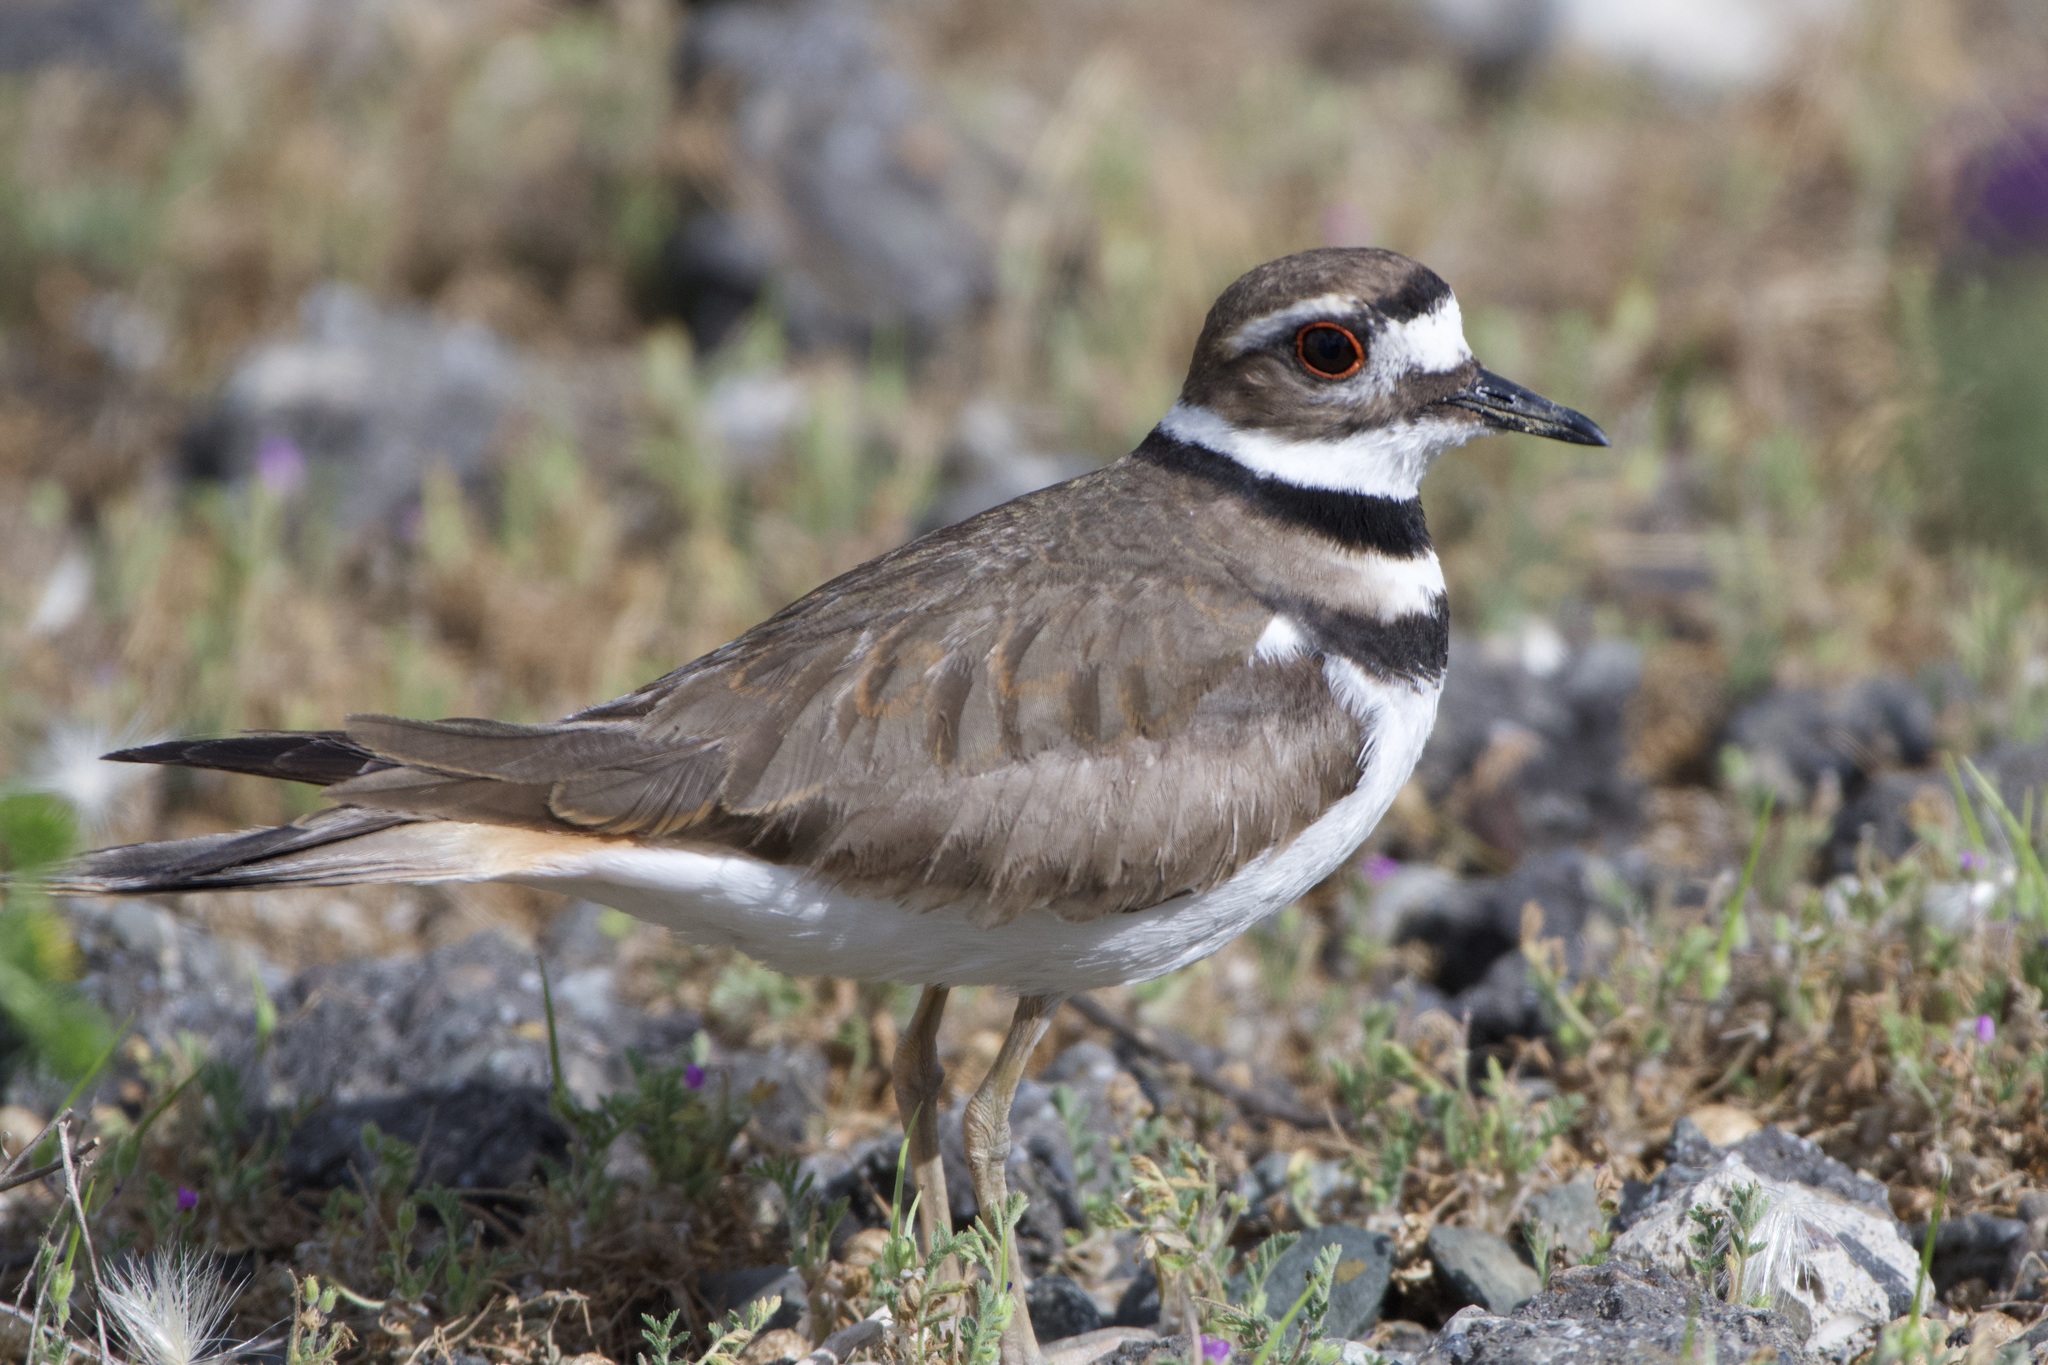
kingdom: Animalia
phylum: Chordata
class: Aves
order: Charadriiformes
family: Charadriidae
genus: Charadrius
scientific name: Charadrius vociferus
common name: Killdeer
